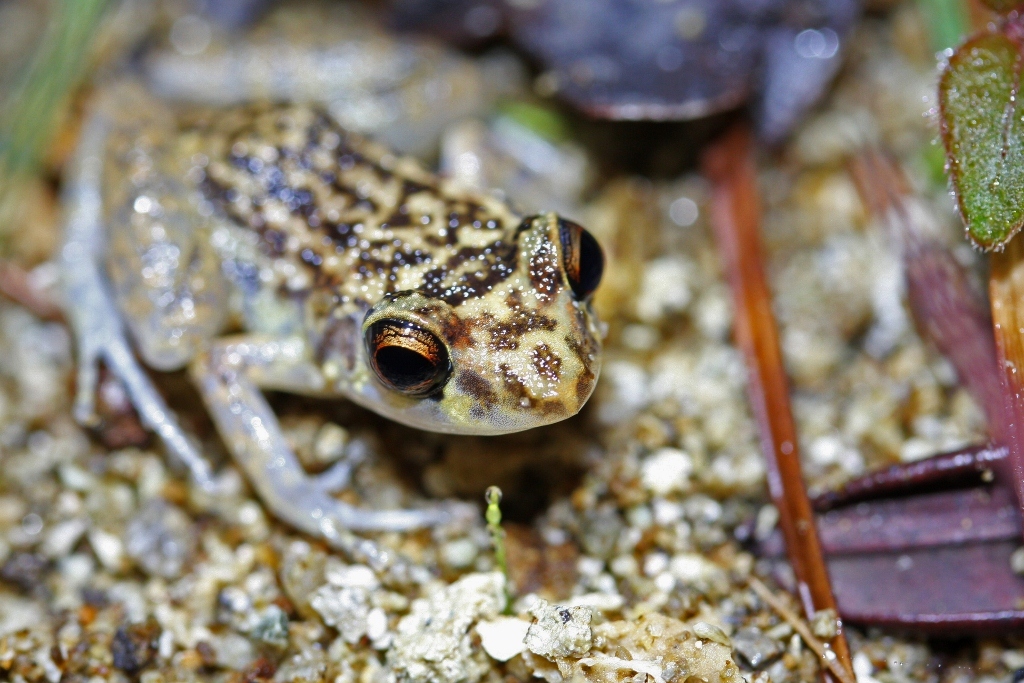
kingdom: Animalia
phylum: Chordata
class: Amphibia
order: Anura
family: Eleutherodactylidae
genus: Eleutherodactylus
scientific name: Eleutherodactylus simulans
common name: Oriente mottled frog
